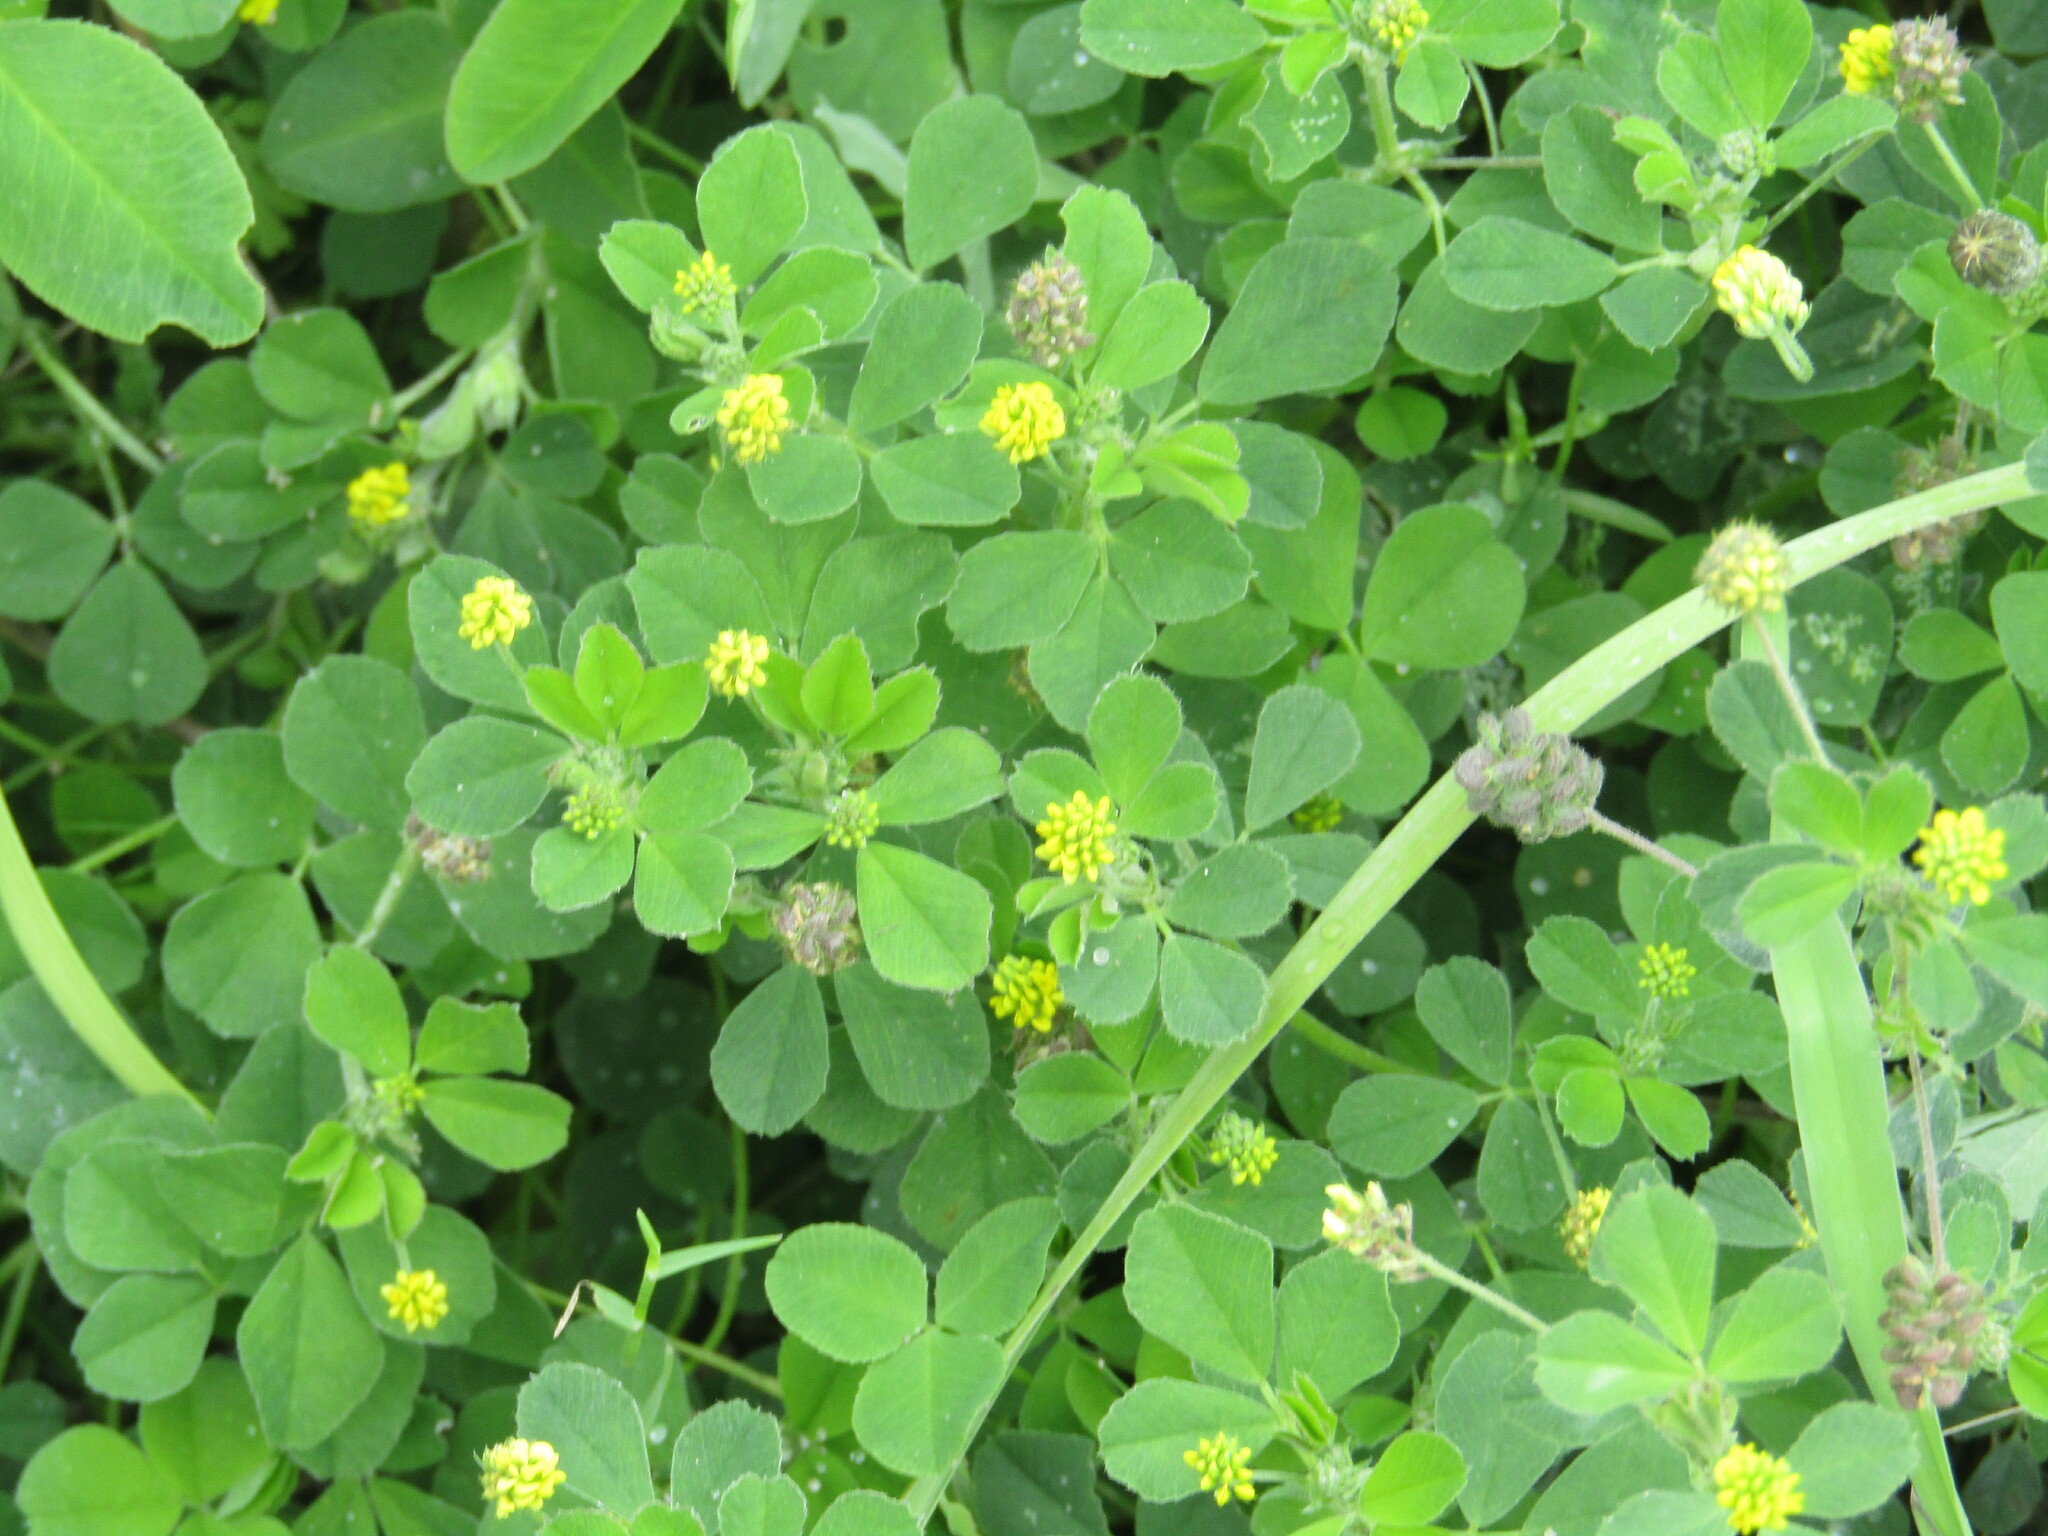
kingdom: Plantae
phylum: Tracheophyta
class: Magnoliopsida
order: Fabales
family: Fabaceae
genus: Medicago
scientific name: Medicago lupulina
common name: Black medick
